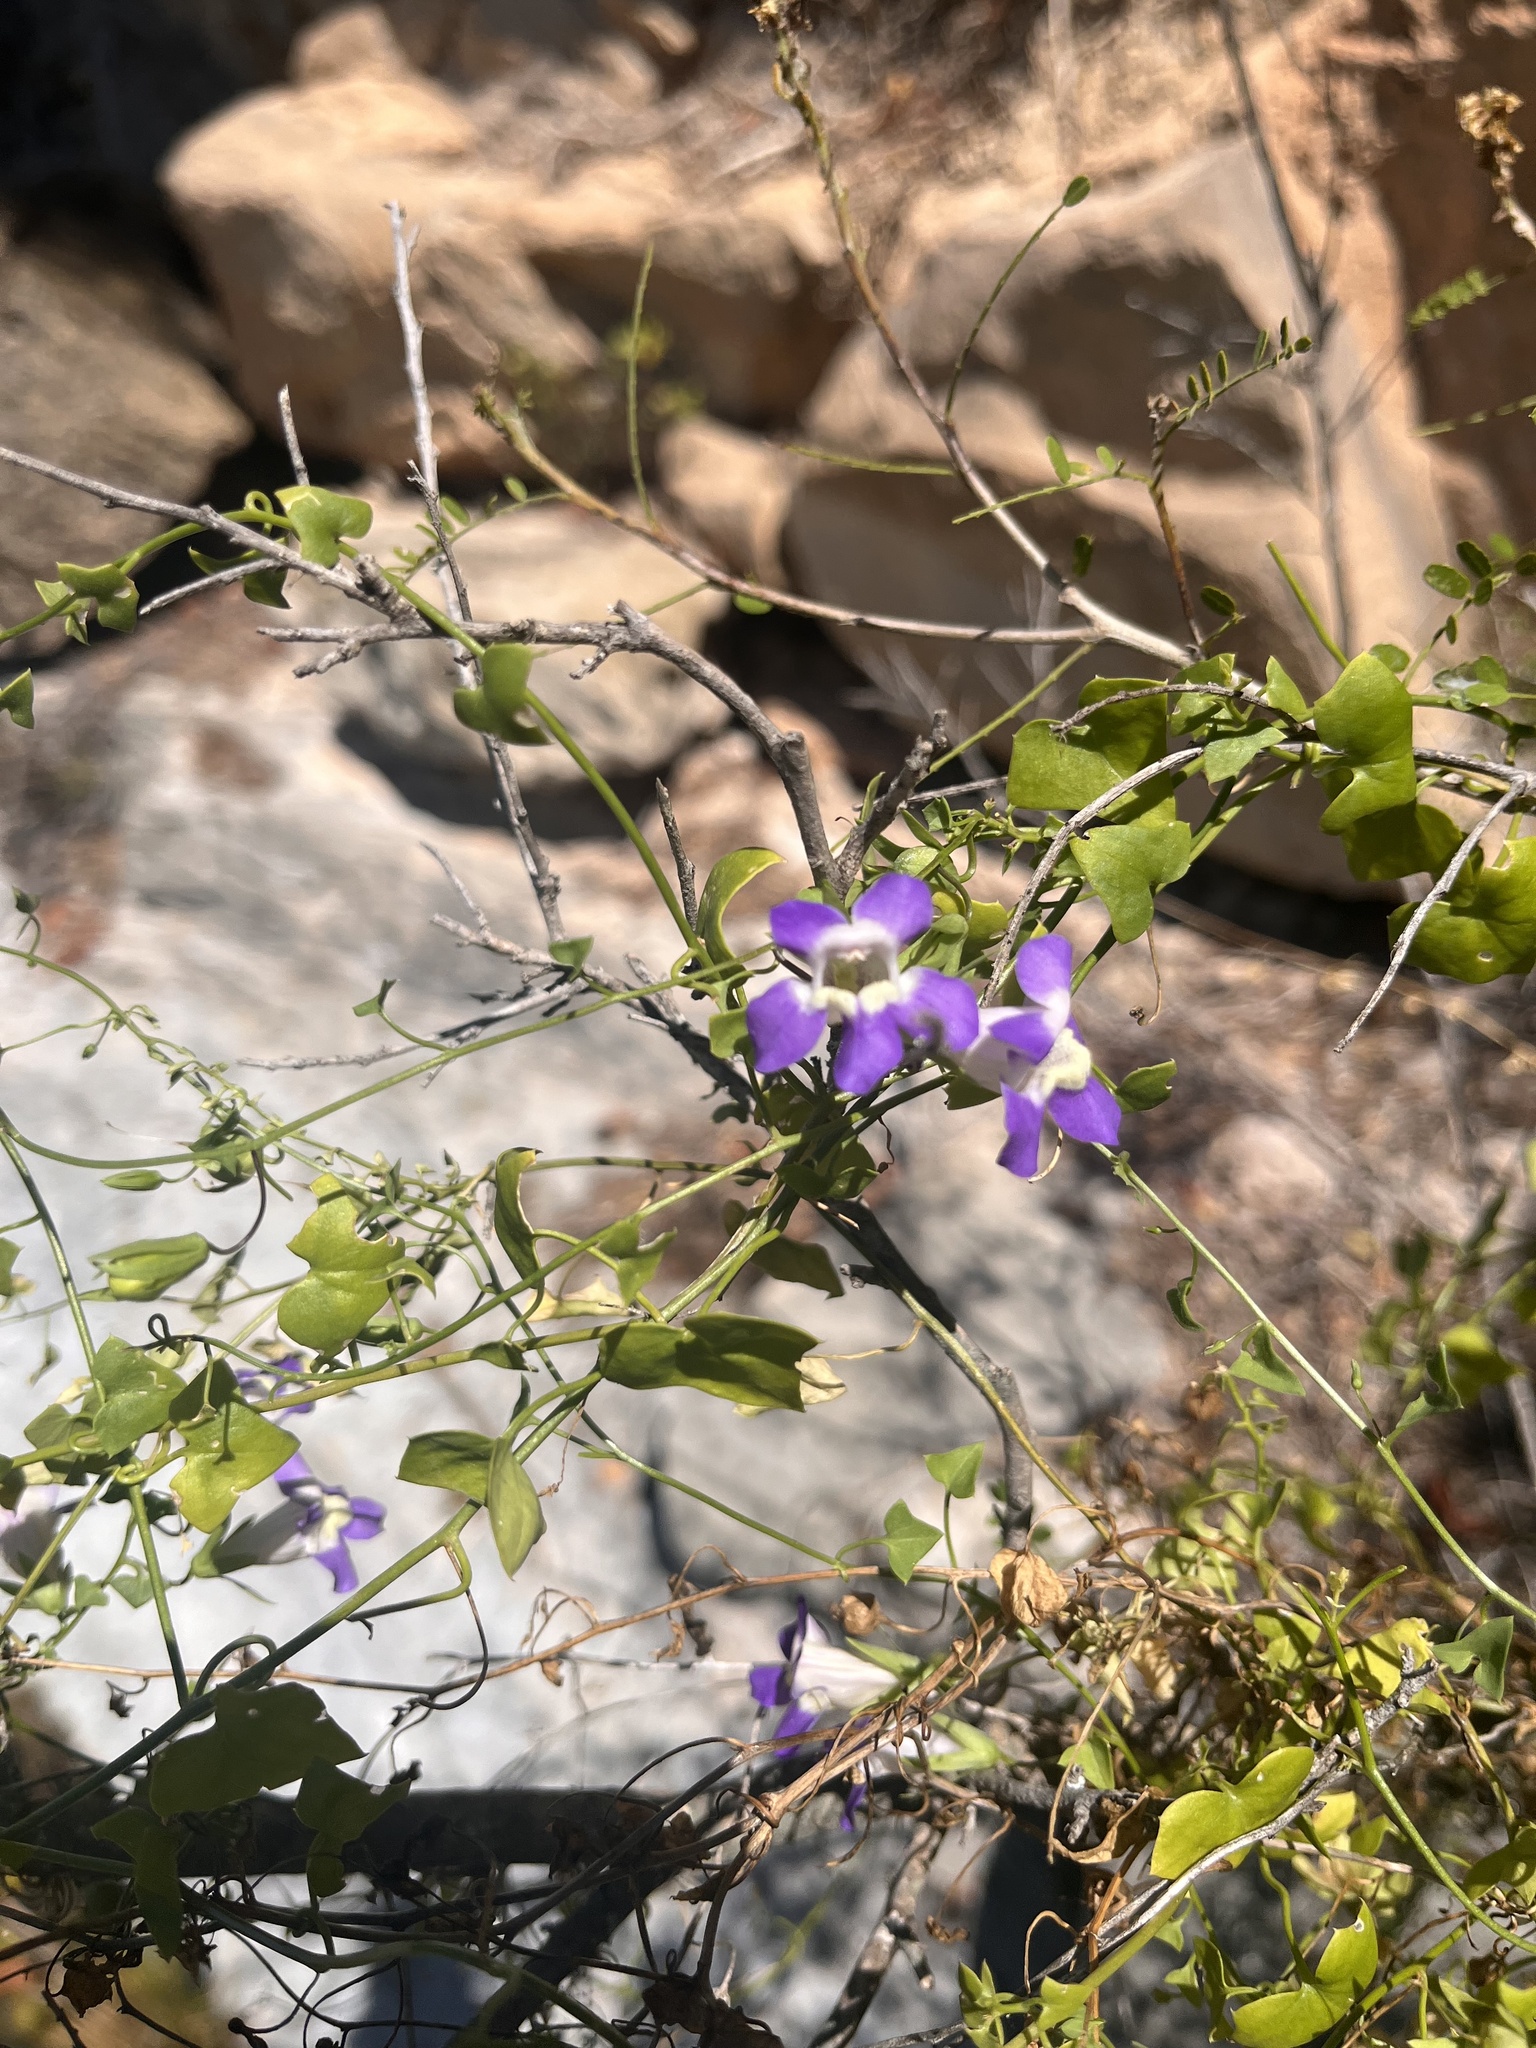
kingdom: Plantae
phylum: Tracheophyta
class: Magnoliopsida
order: Lamiales
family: Plantaginaceae
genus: Maurandella
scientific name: Maurandella antirrhiniflora
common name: Violet twining-snapdragon
